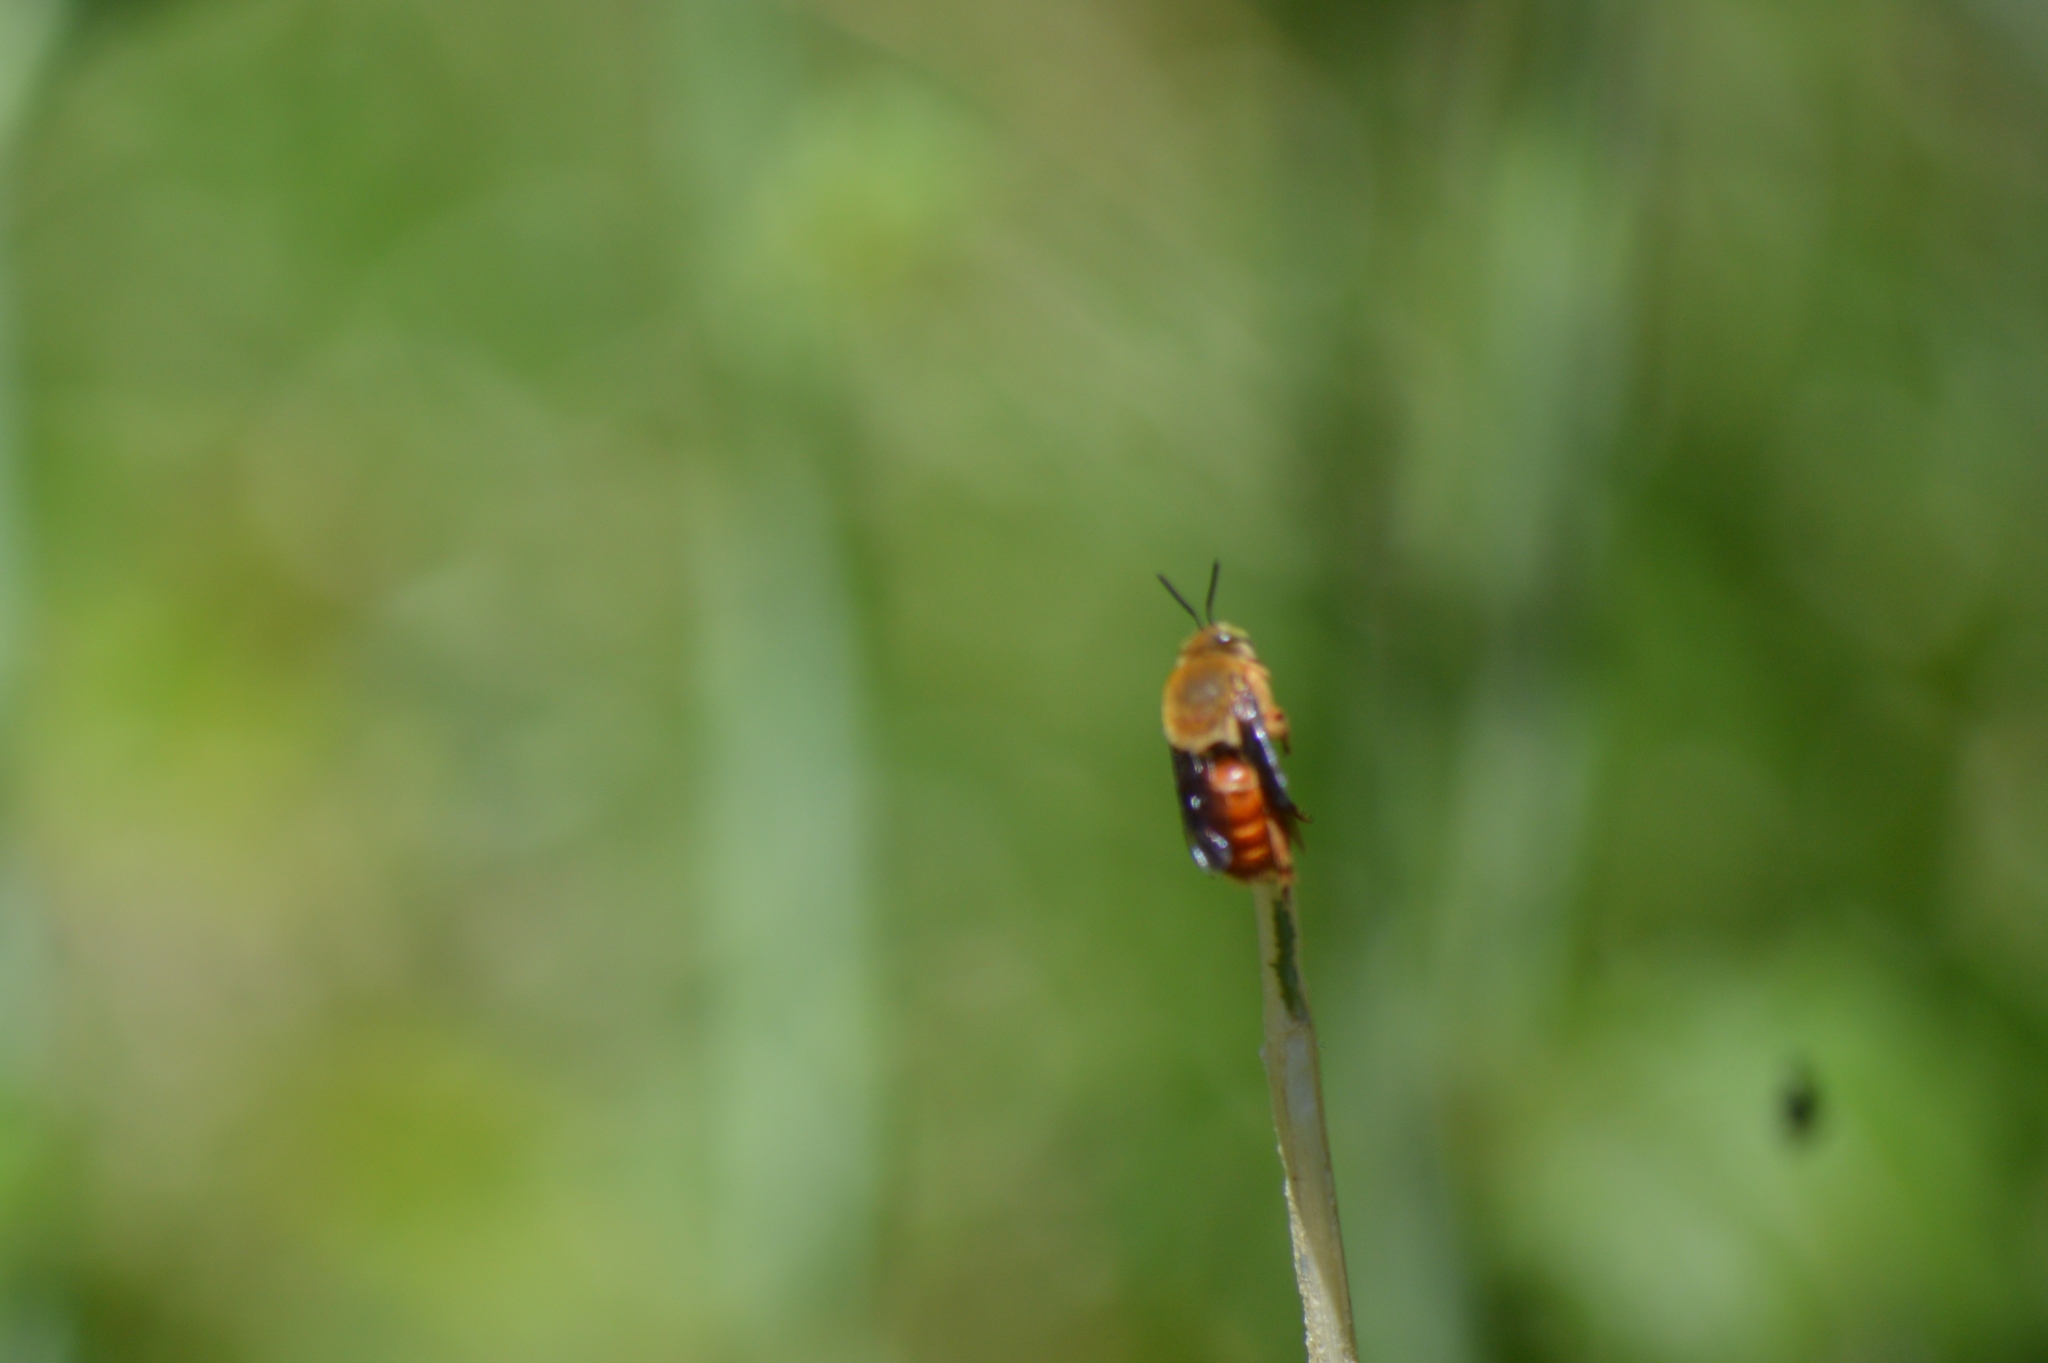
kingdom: Animalia
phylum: Arthropoda
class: Insecta
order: Hymenoptera
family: Apidae
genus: Centris
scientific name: Centris fuscata
